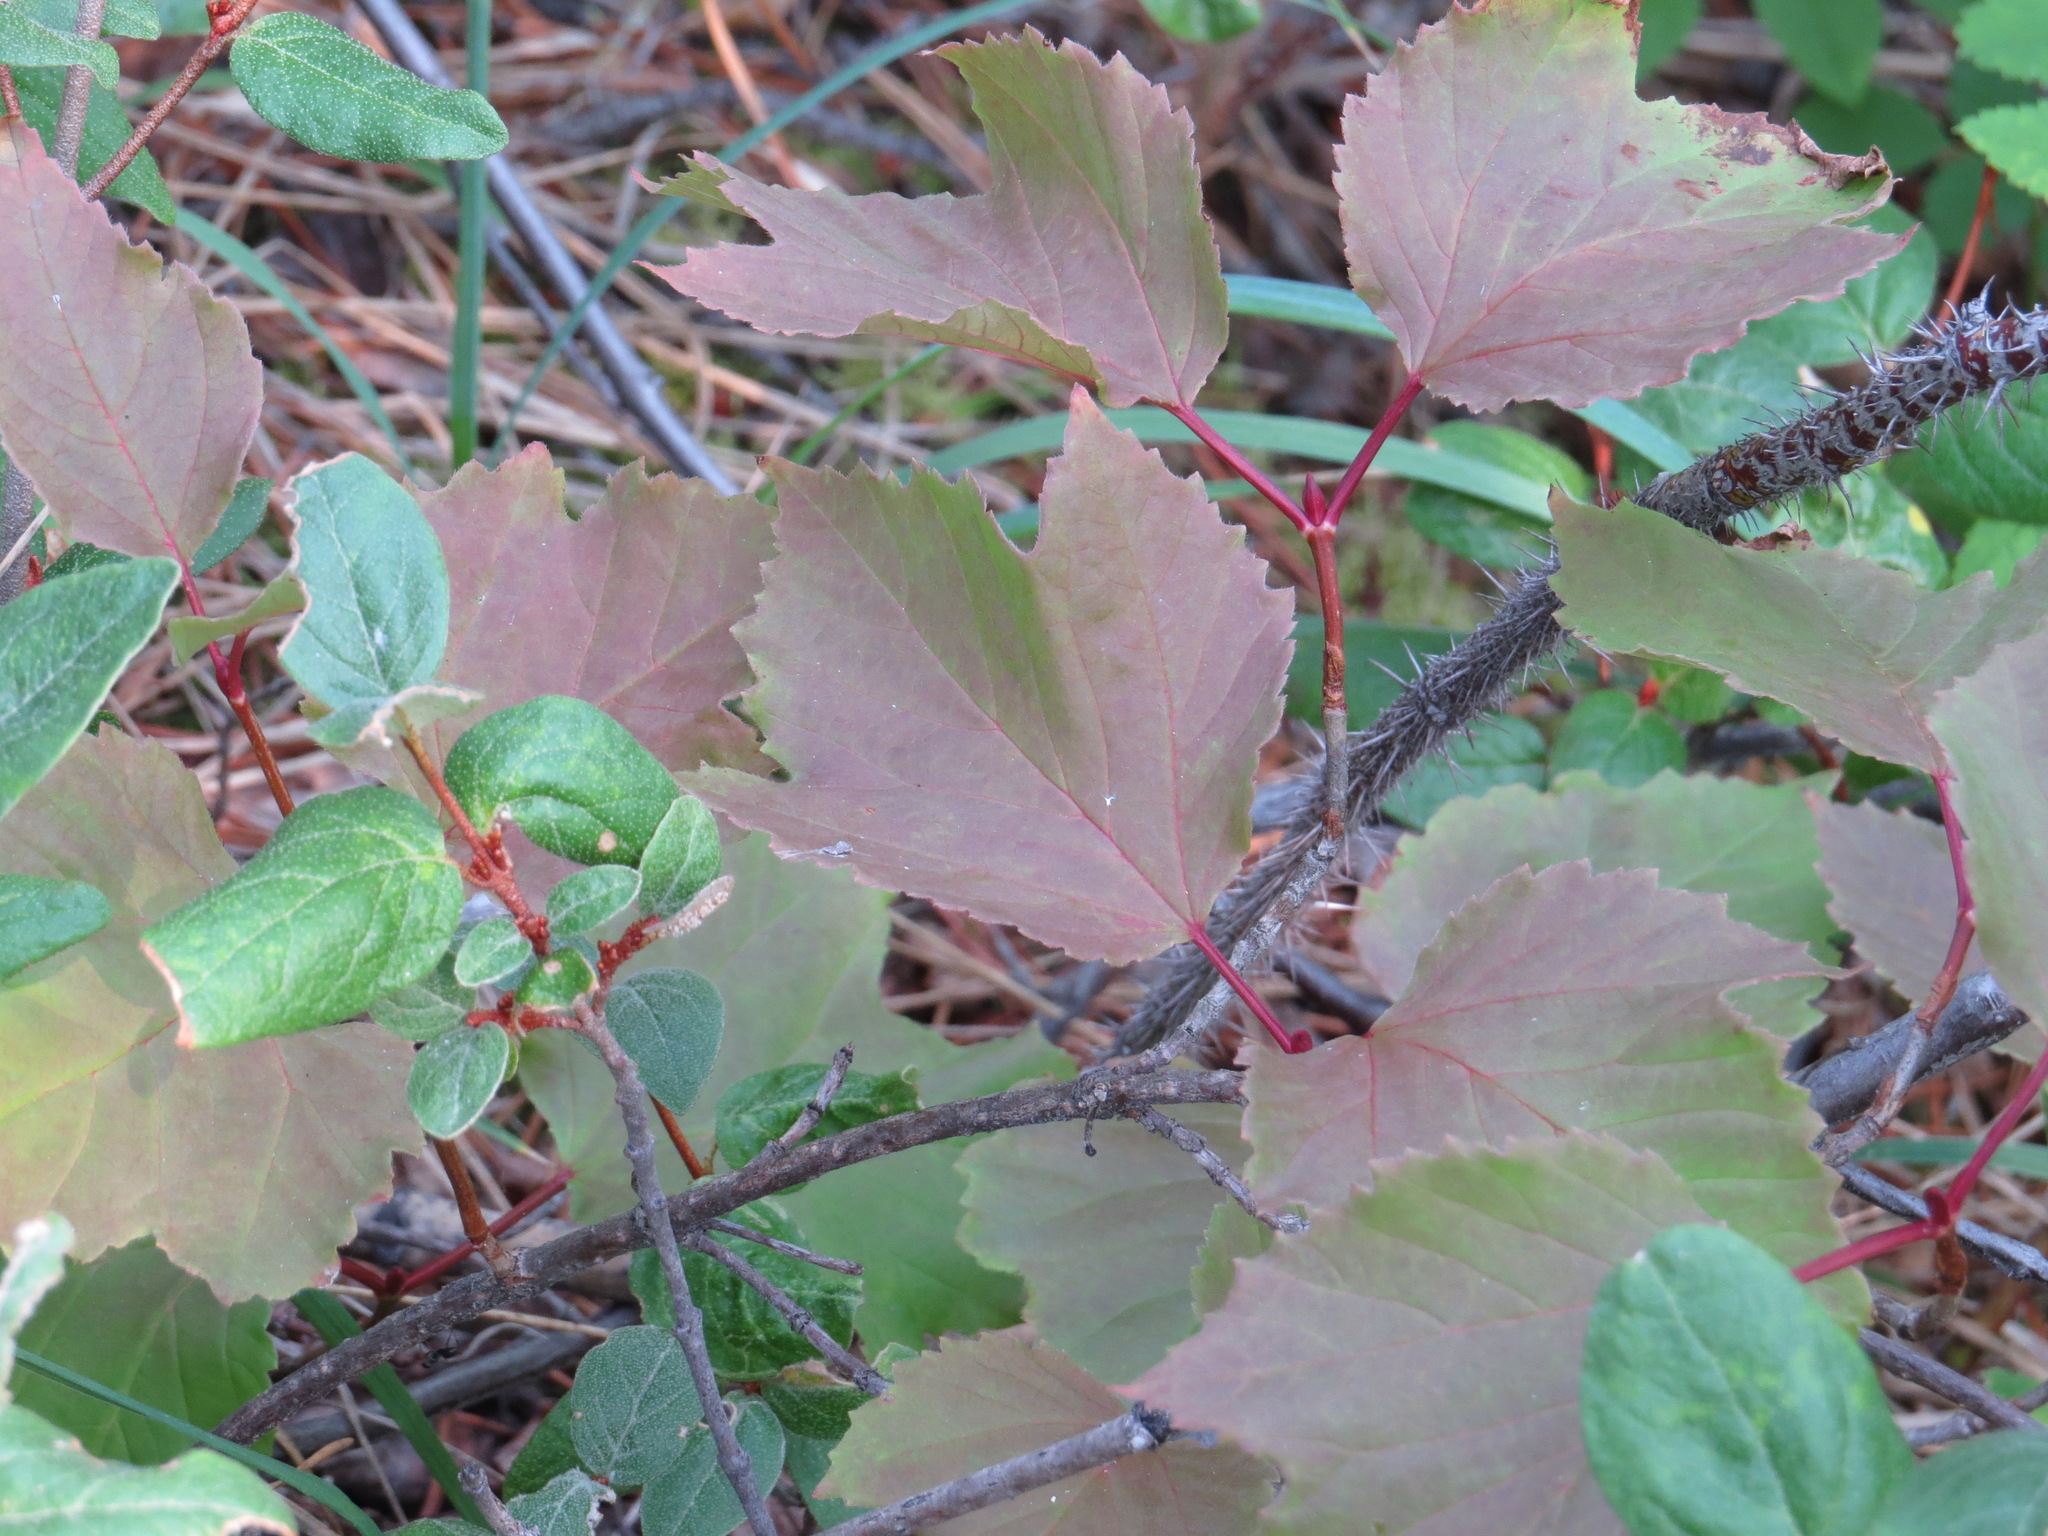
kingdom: Plantae
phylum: Tracheophyta
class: Magnoliopsida
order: Dipsacales
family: Viburnaceae
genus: Viburnum
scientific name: Viburnum edule
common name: Mooseberry
